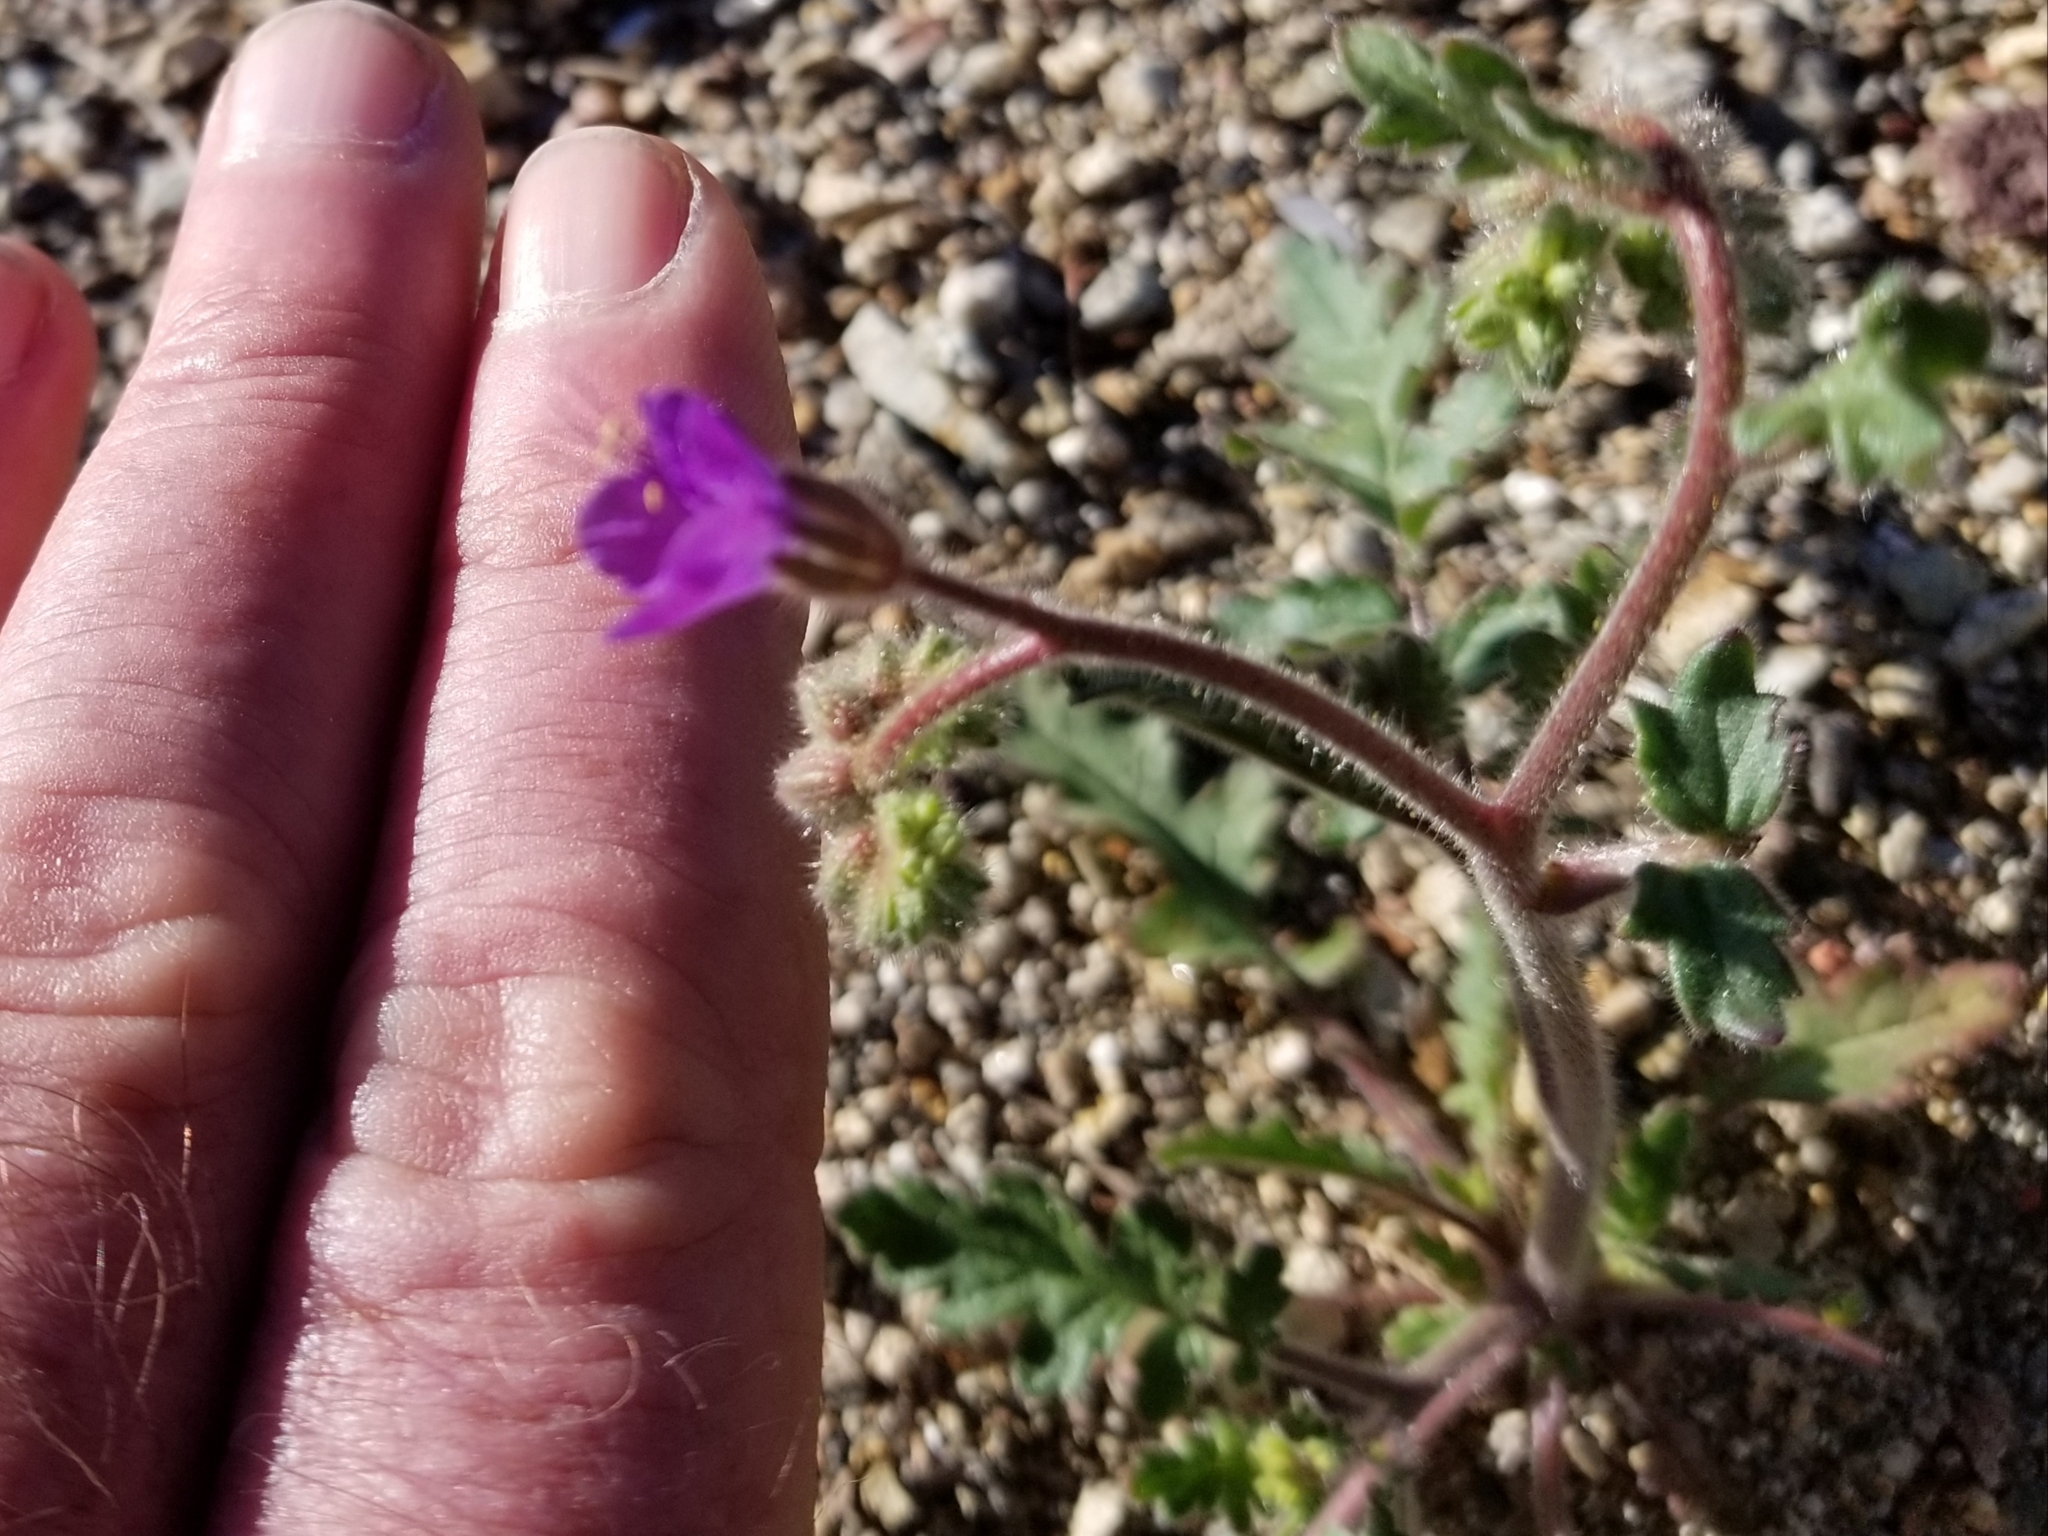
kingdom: Plantae
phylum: Tracheophyta
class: Magnoliopsida
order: Boraginales
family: Hydrophyllaceae
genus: Phacelia
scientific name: Phacelia crenulata
